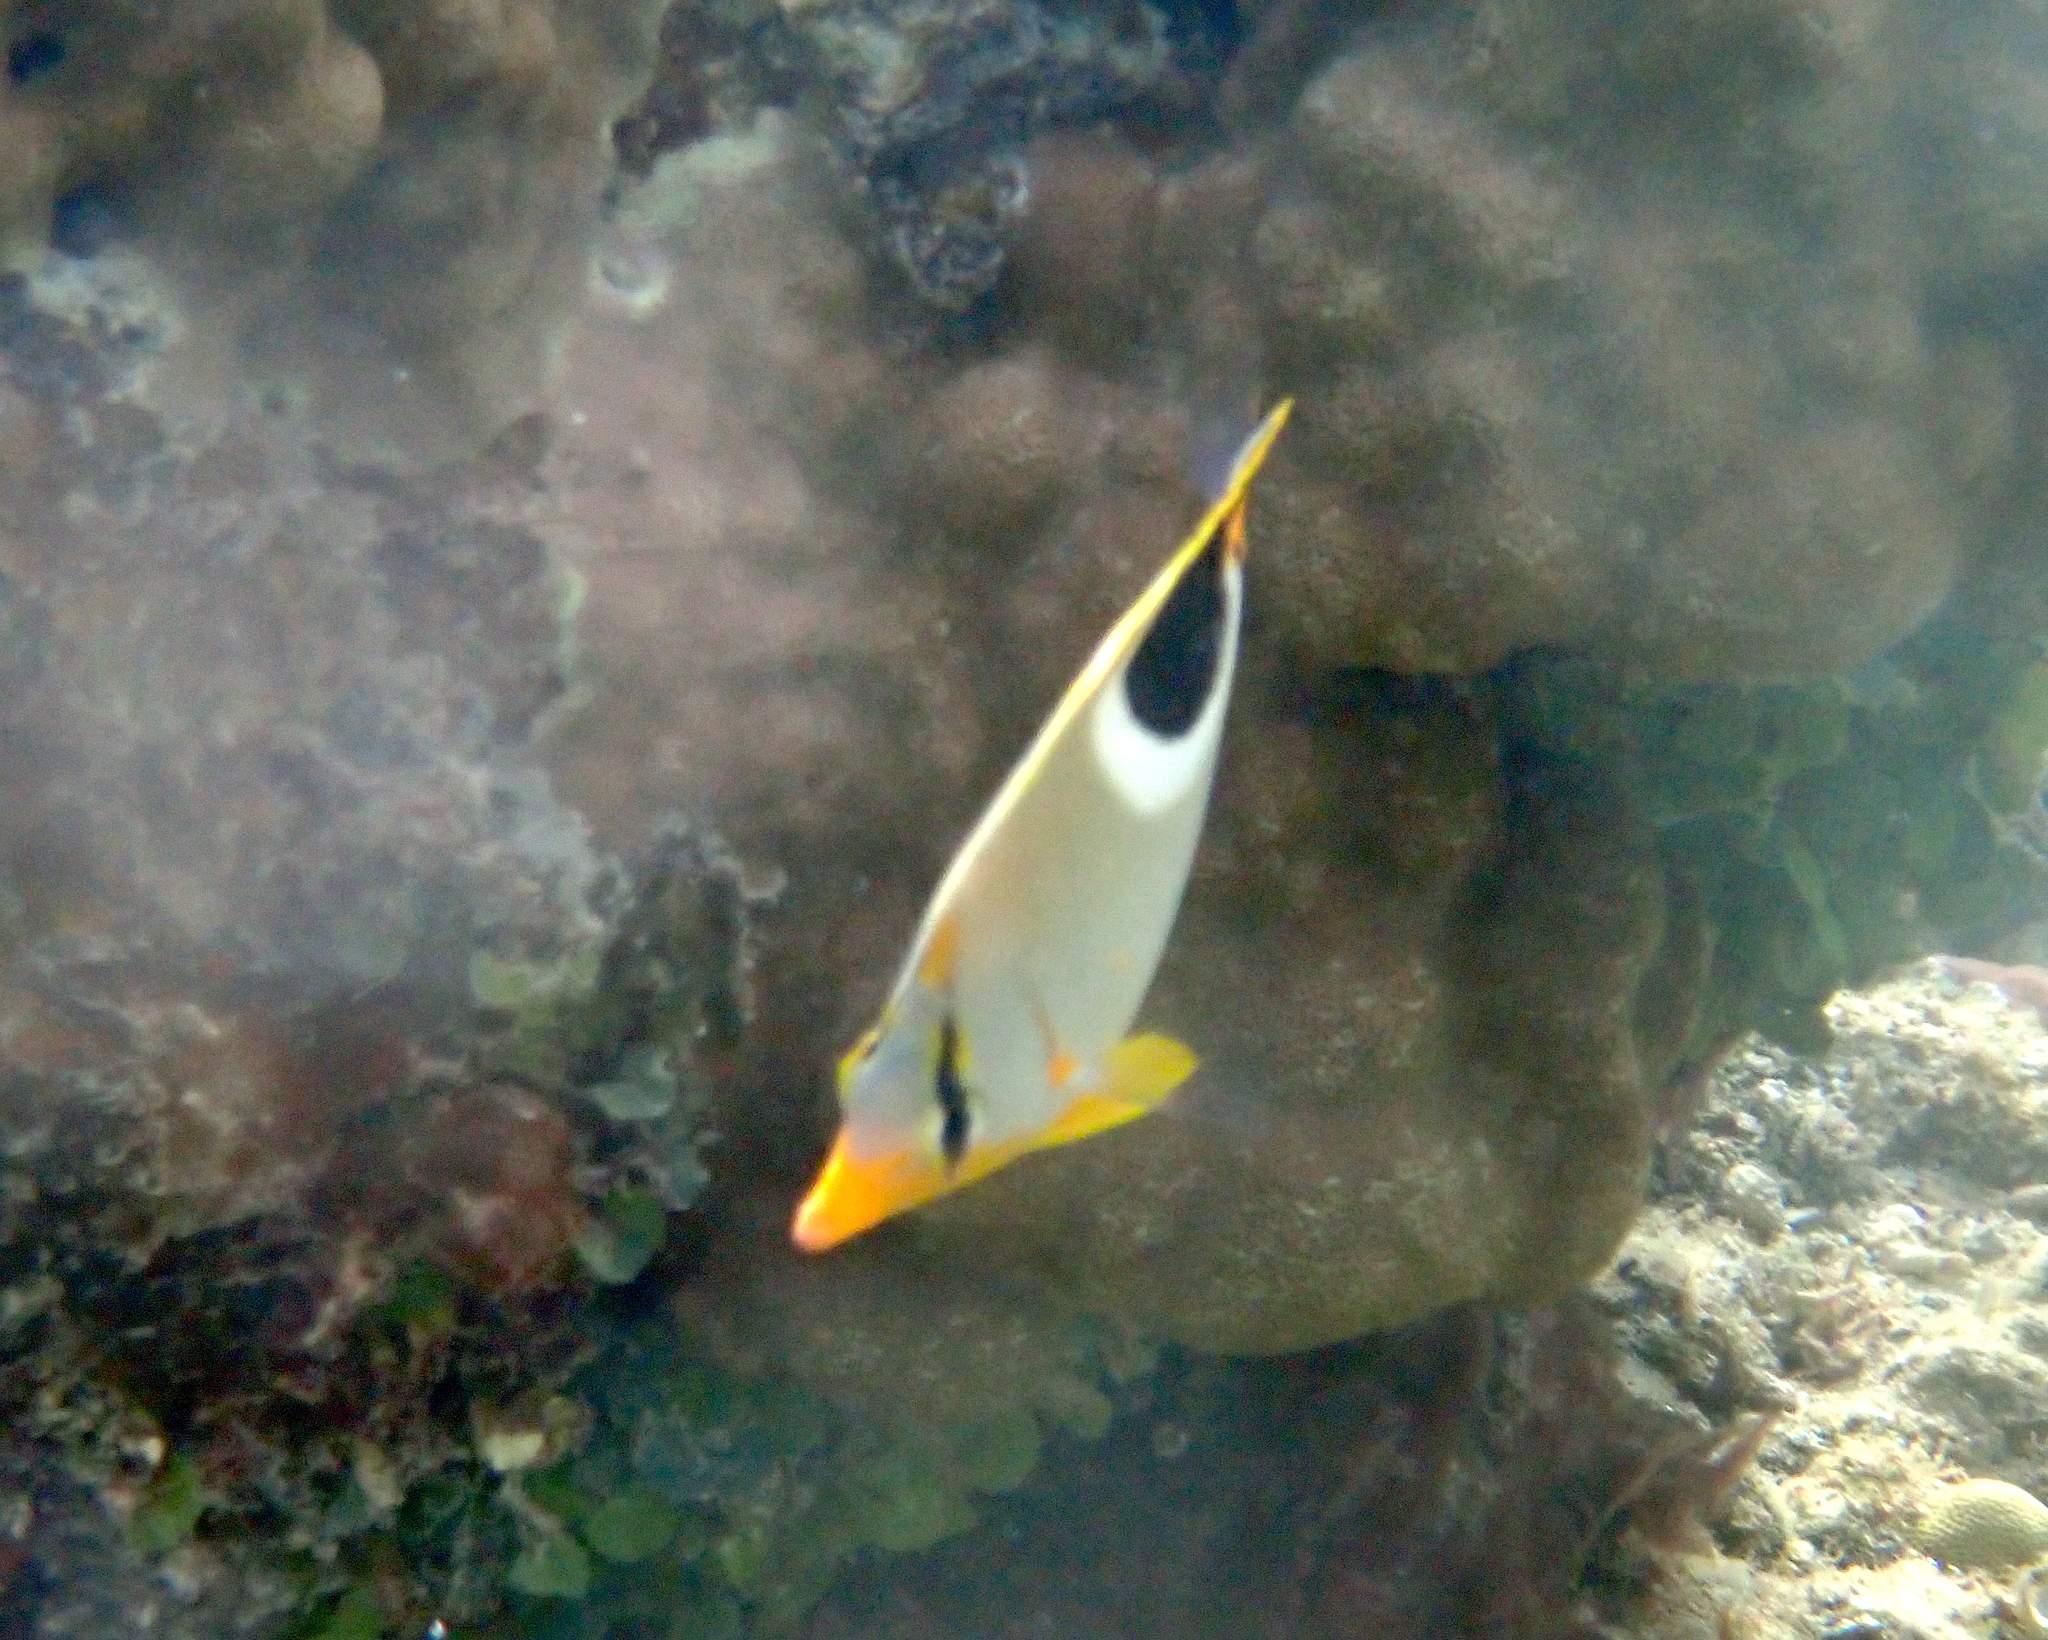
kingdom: Animalia
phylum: Chordata
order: Perciformes
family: Chaetodontidae
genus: Chaetodon
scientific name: Chaetodon ephippium
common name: Saddled butterflyfish
